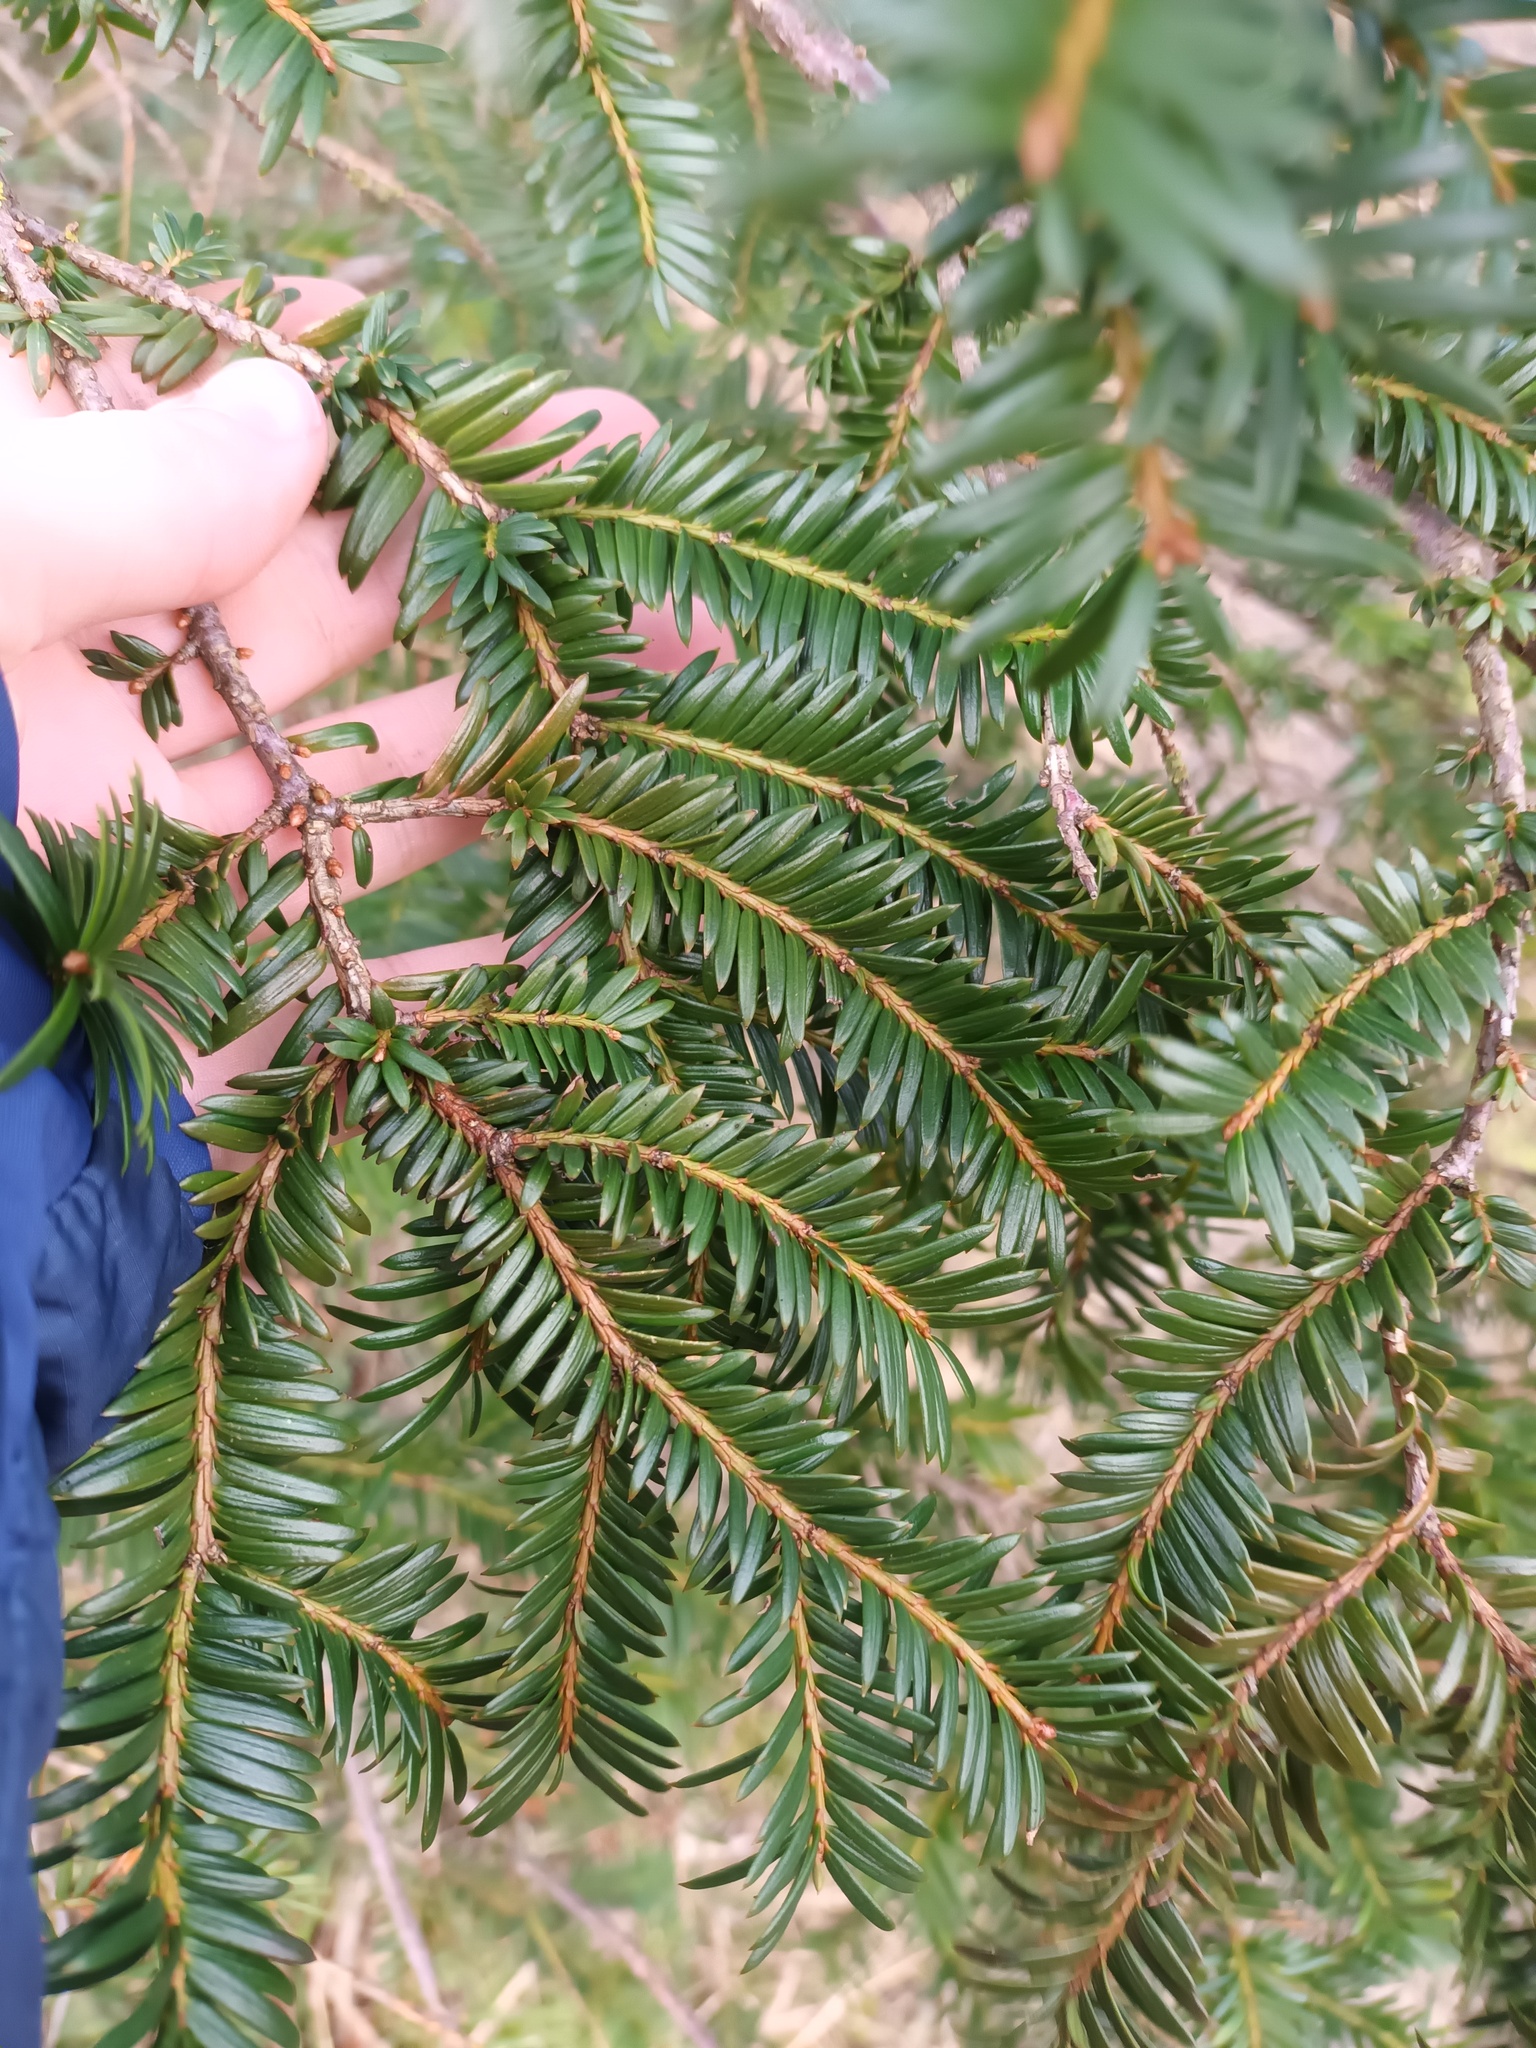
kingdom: Plantae
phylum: Tracheophyta
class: Pinopsida
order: Pinales
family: Taxaceae
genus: Taxus
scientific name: Taxus baccata
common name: Yew
